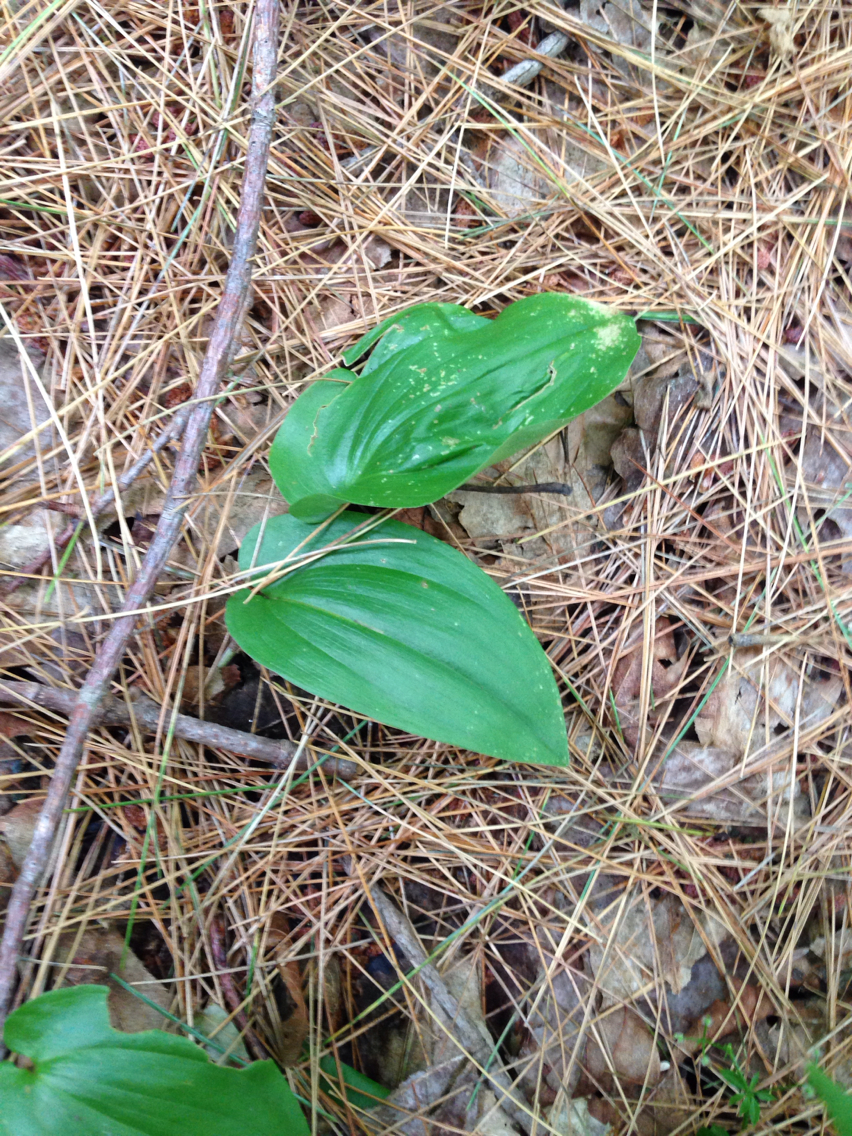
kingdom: Plantae
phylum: Tracheophyta
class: Liliopsida
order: Asparagales
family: Asparagaceae
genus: Maianthemum
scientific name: Maianthemum canadense
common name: False lily-of-the-valley
